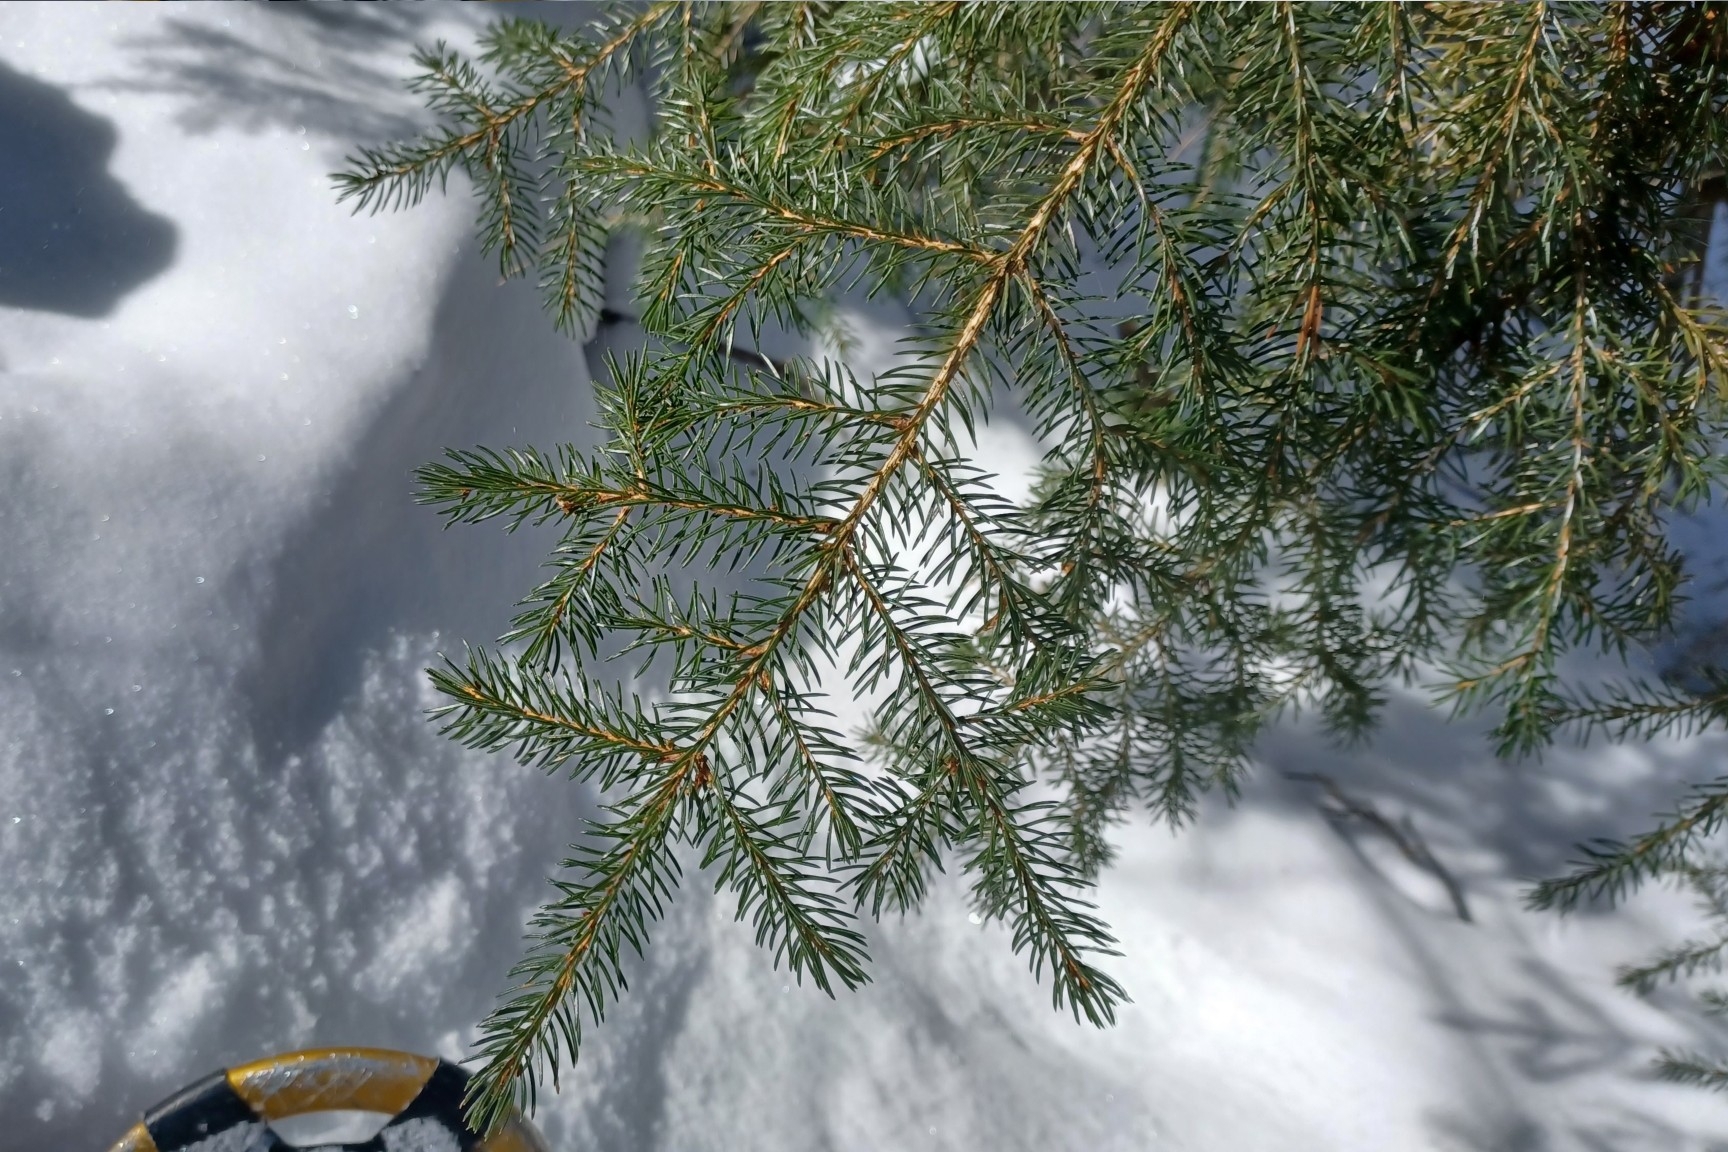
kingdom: Plantae
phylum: Tracheophyta
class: Pinopsida
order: Pinales
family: Pinaceae
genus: Picea
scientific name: Picea rubens
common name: Red spruce
